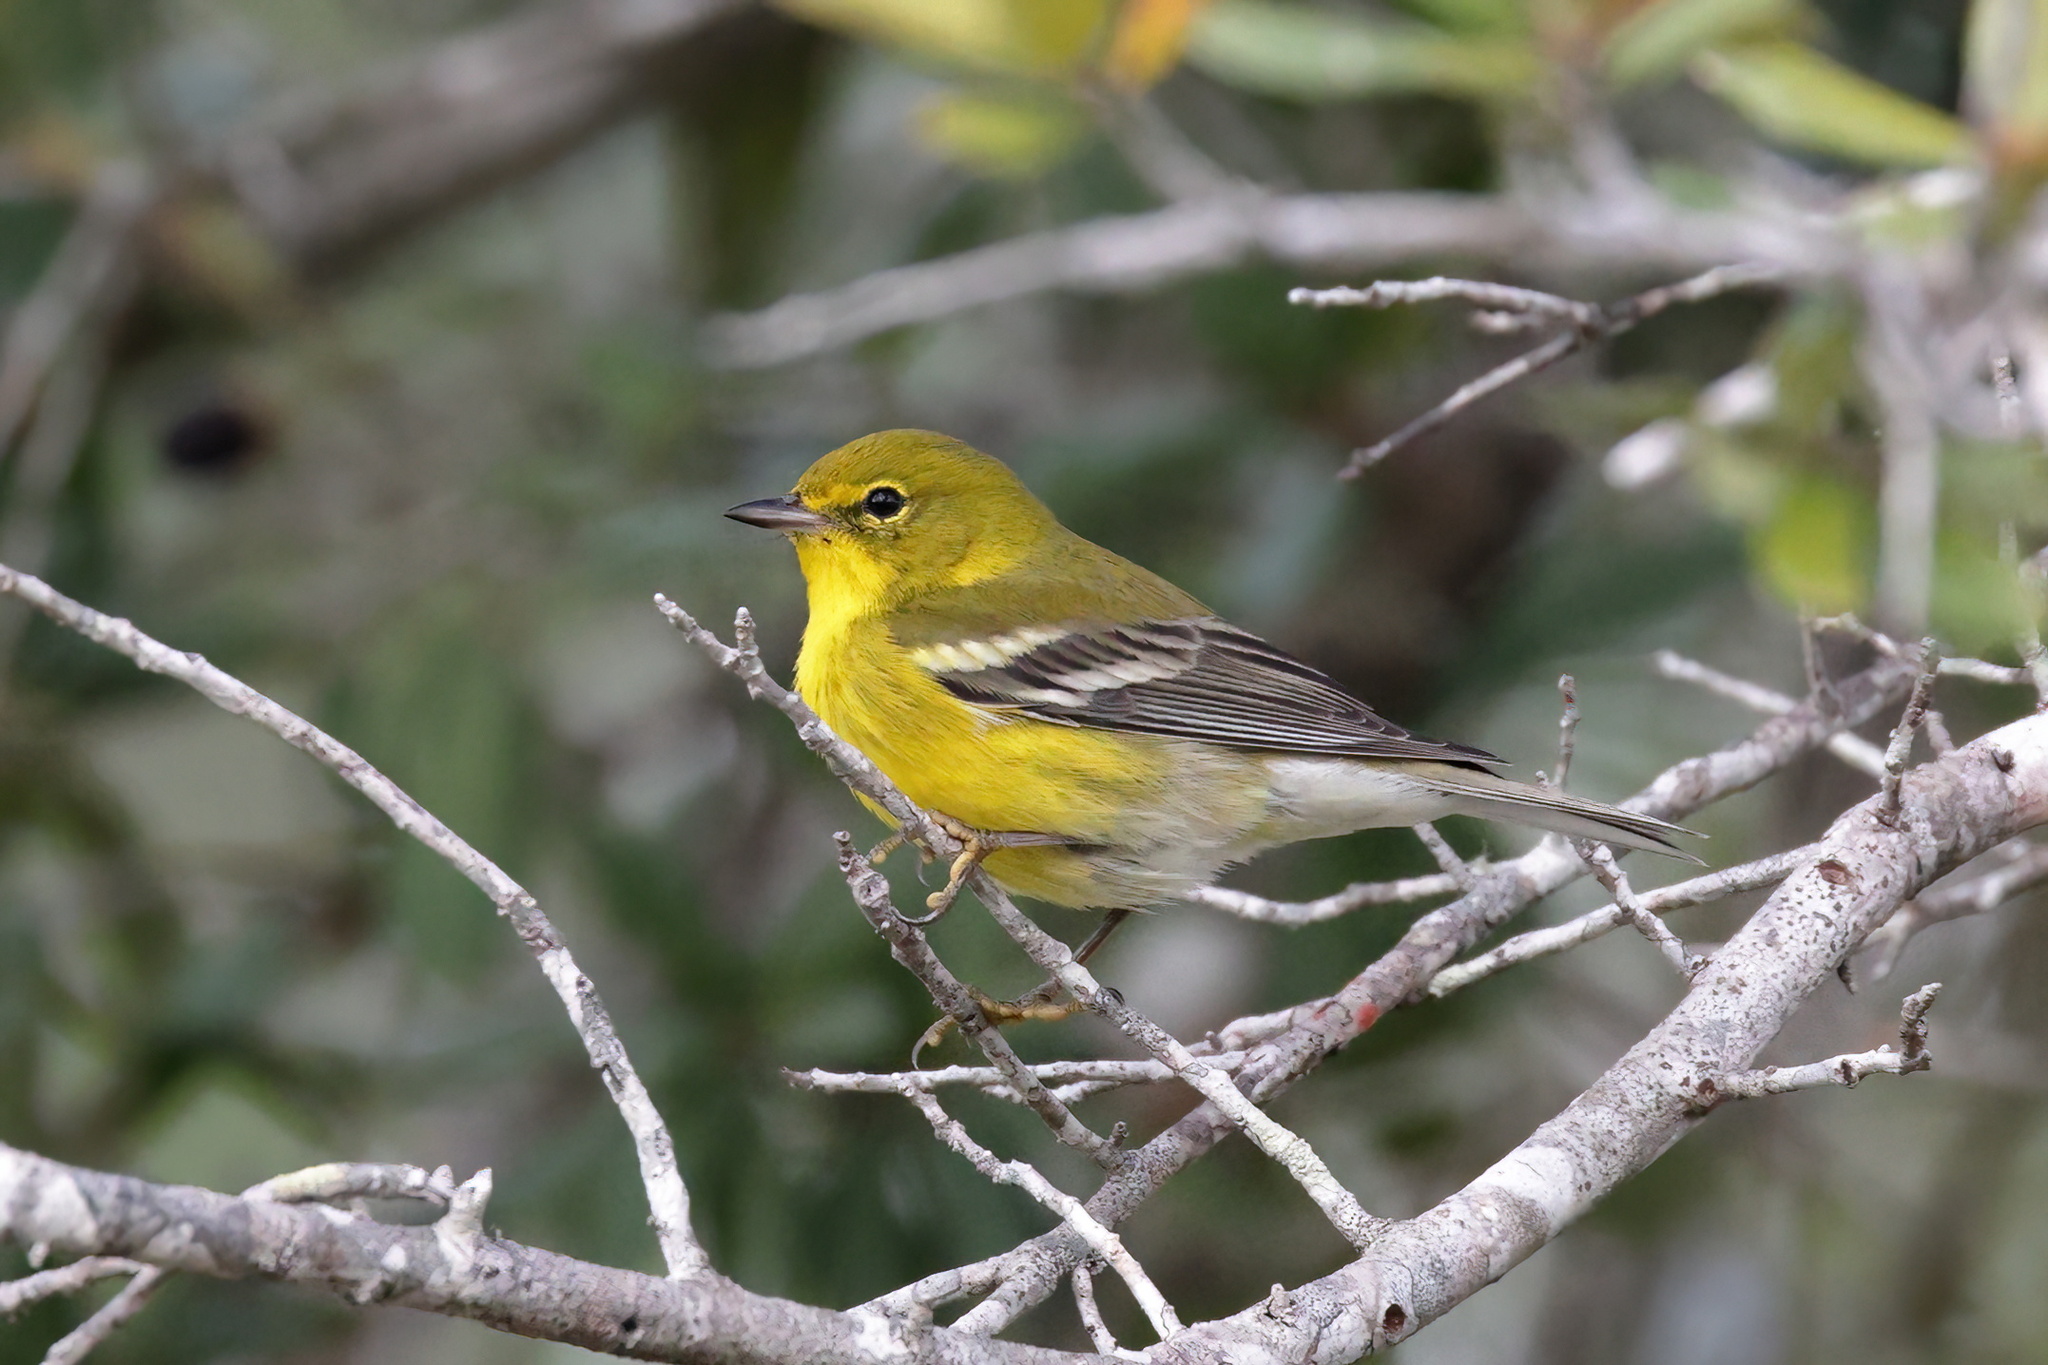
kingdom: Animalia
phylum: Chordata
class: Aves
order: Passeriformes
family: Parulidae
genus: Setophaga
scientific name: Setophaga pinus
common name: Pine warbler
